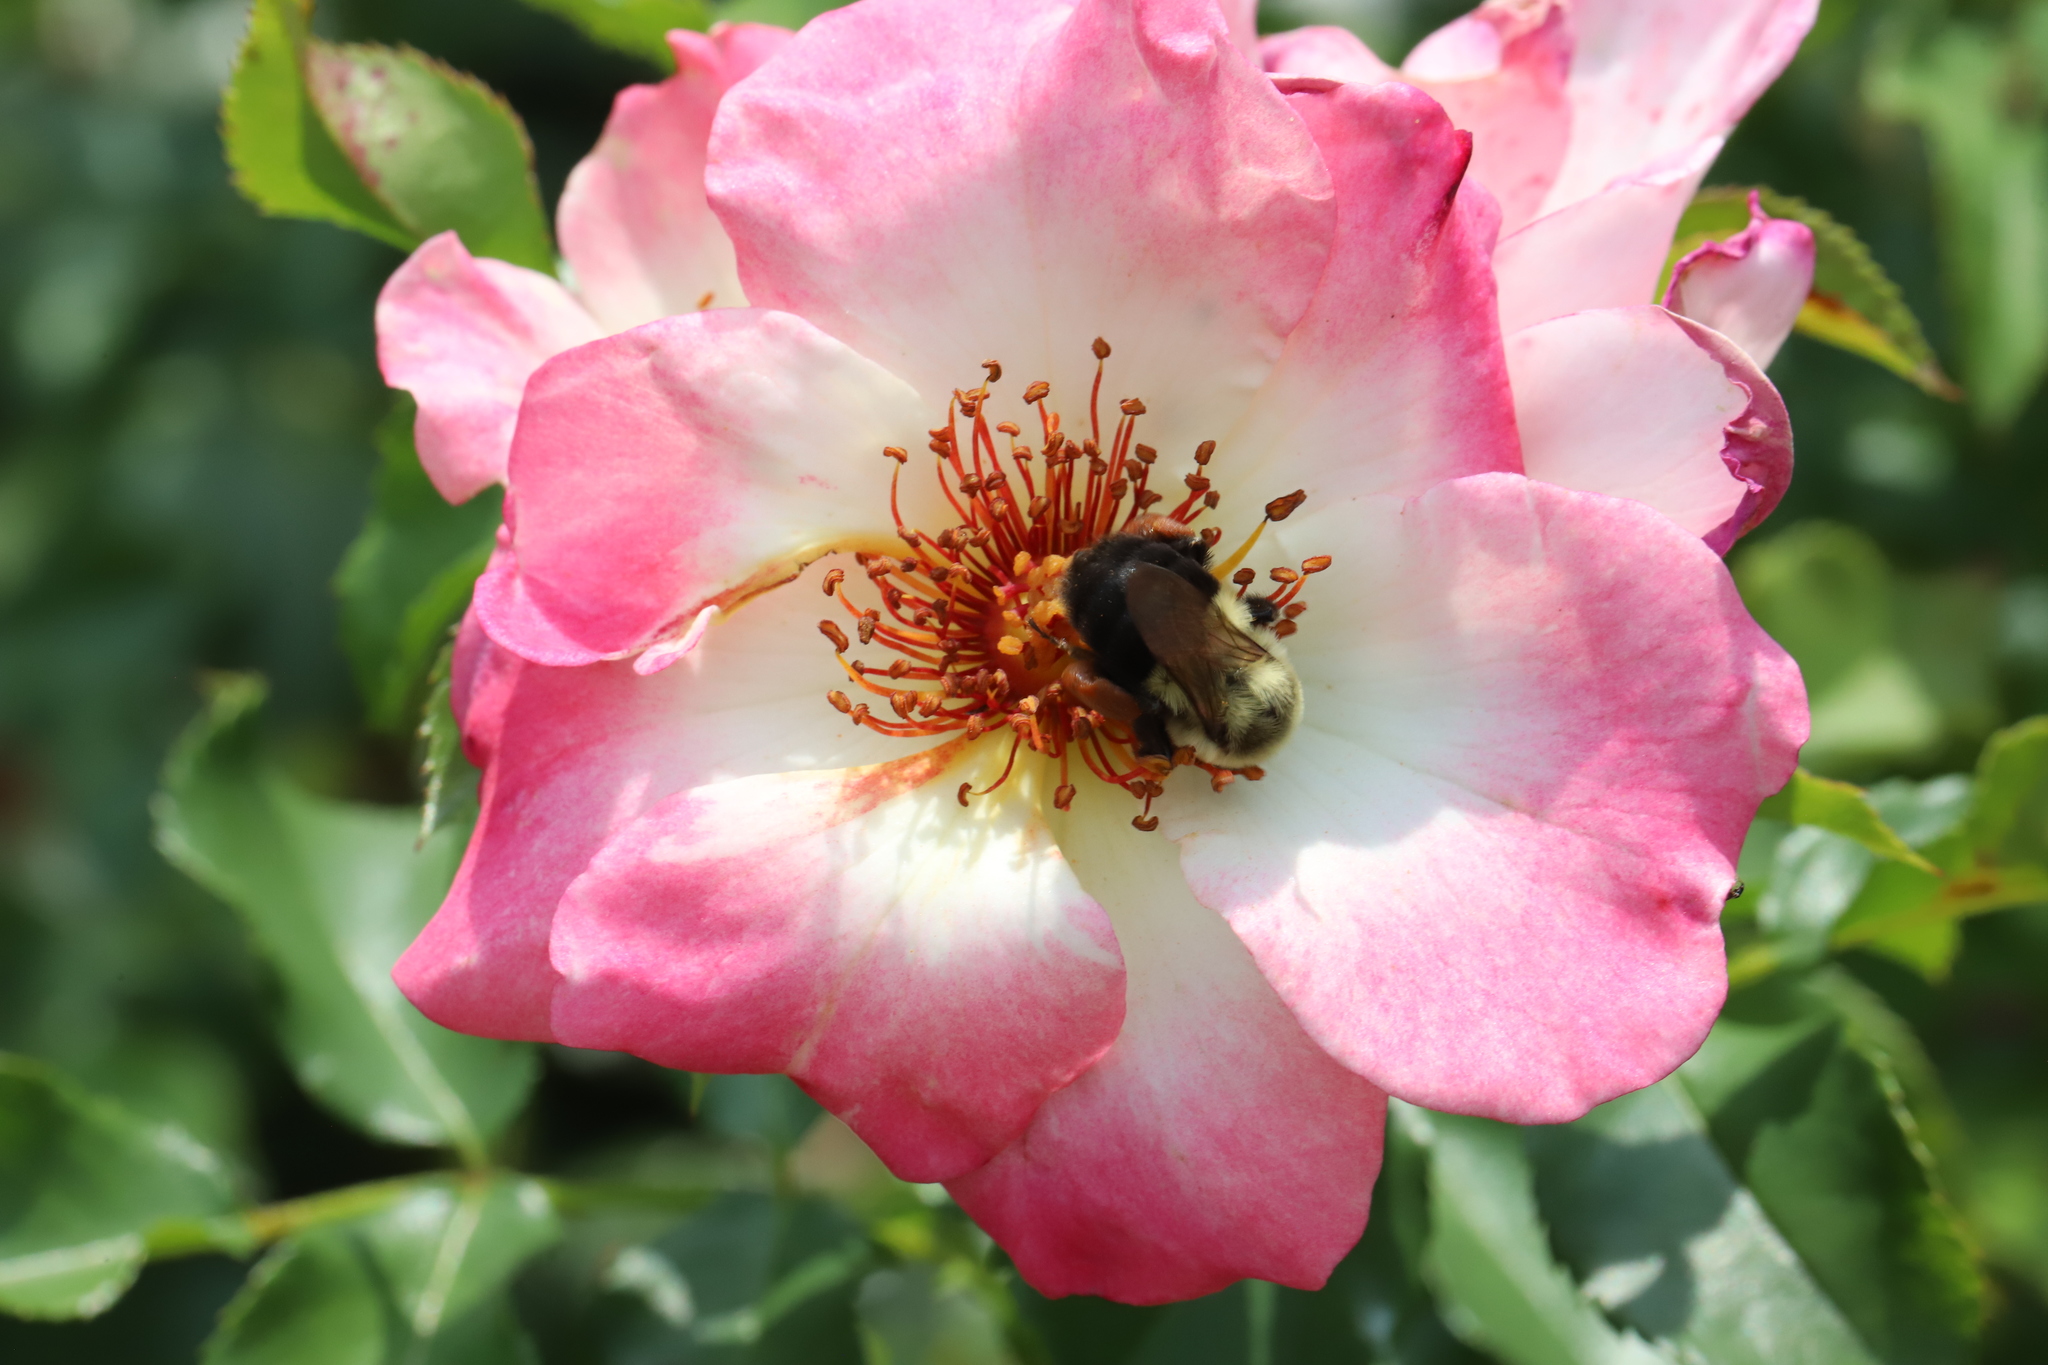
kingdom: Animalia
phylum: Arthropoda
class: Insecta
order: Hymenoptera
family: Apidae
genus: Bombus
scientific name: Bombus impatiens
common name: Common eastern bumble bee
